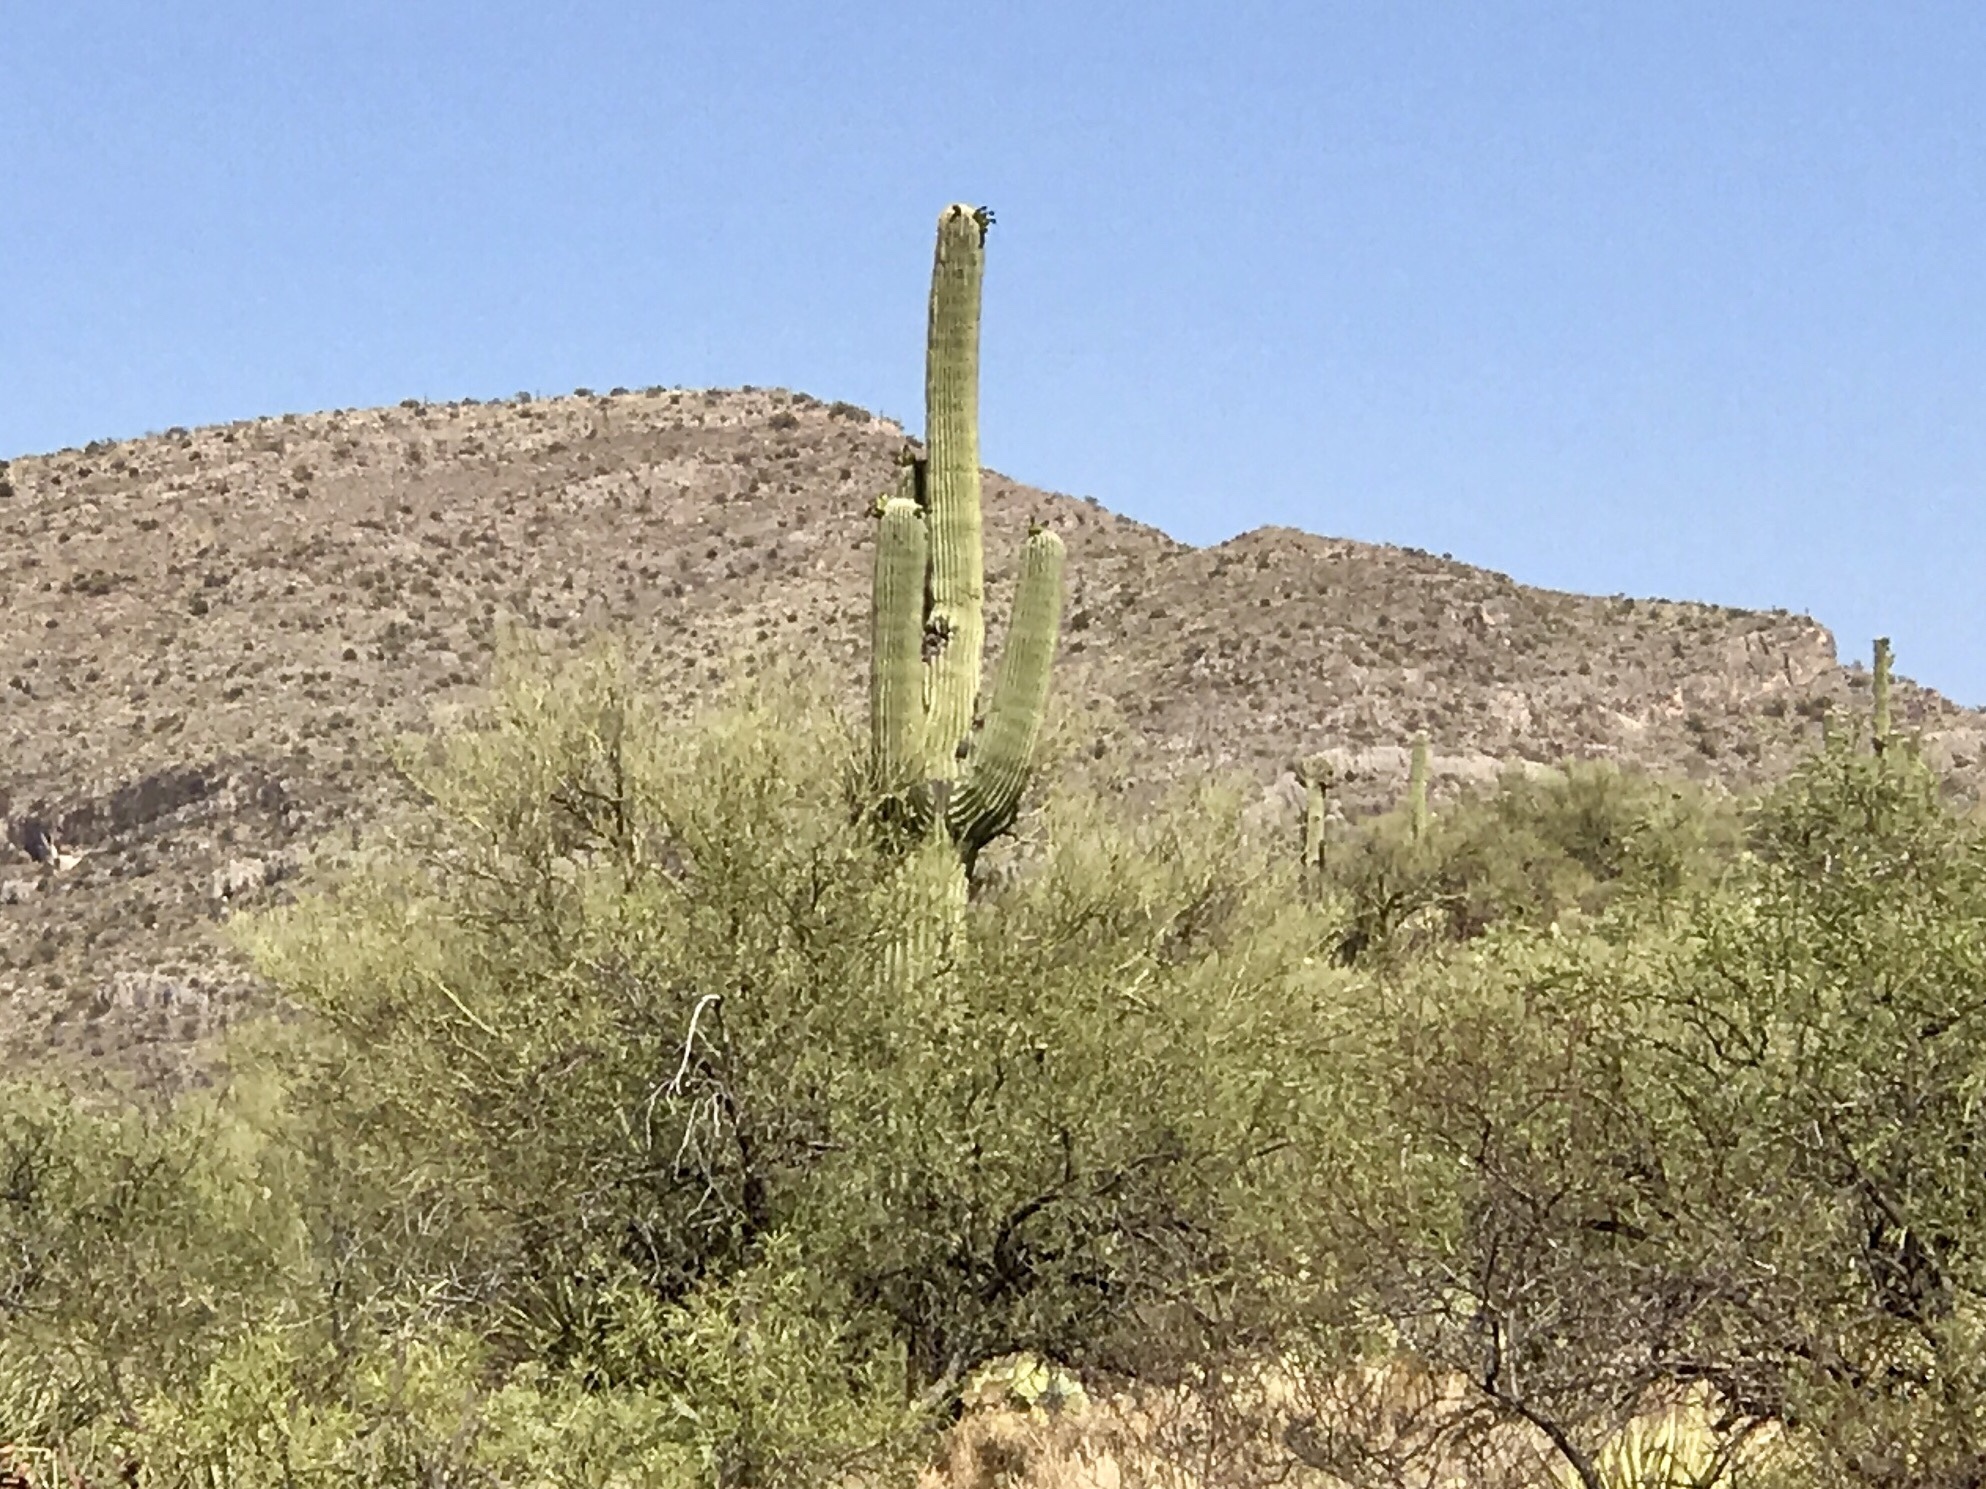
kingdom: Plantae
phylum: Tracheophyta
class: Magnoliopsida
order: Caryophyllales
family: Cactaceae
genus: Carnegiea
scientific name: Carnegiea gigantea
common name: Saguaro
